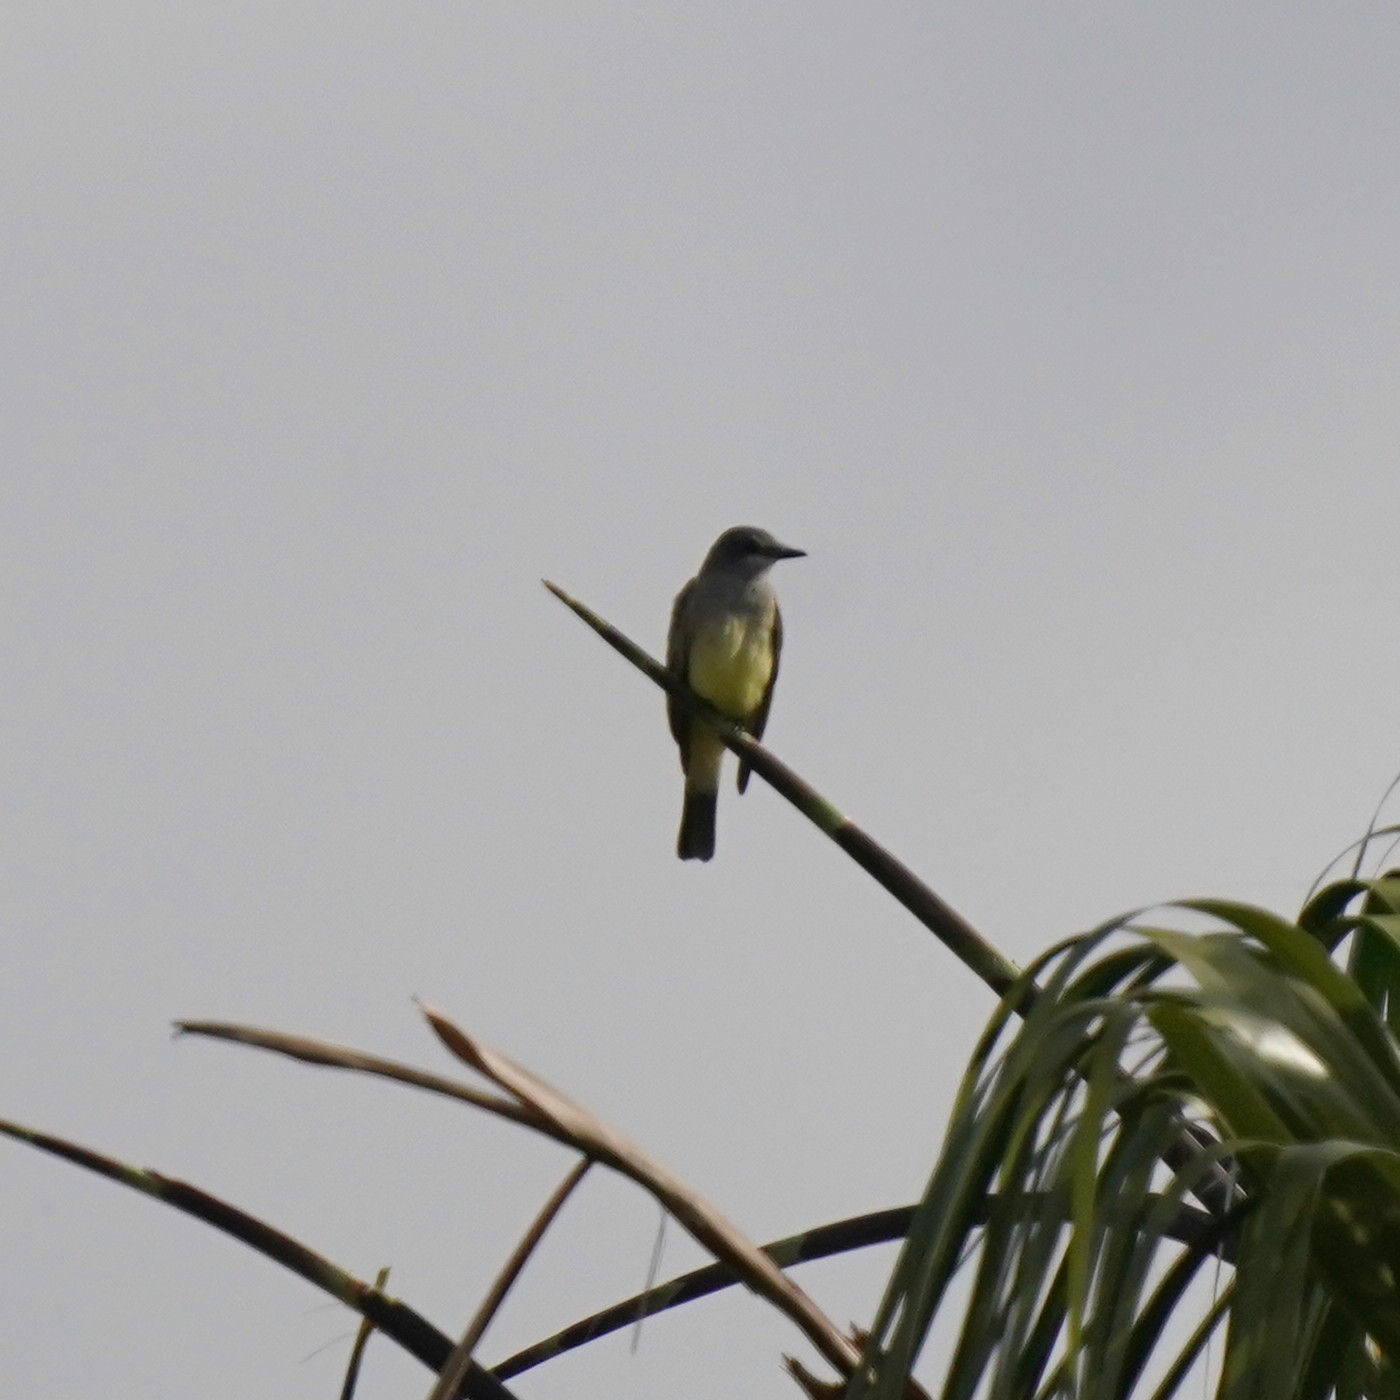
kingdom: Animalia
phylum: Chordata
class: Aves
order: Passeriformes
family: Tyrannidae
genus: Tyrannus
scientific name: Tyrannus vociferans
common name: Cassin's kingbird
